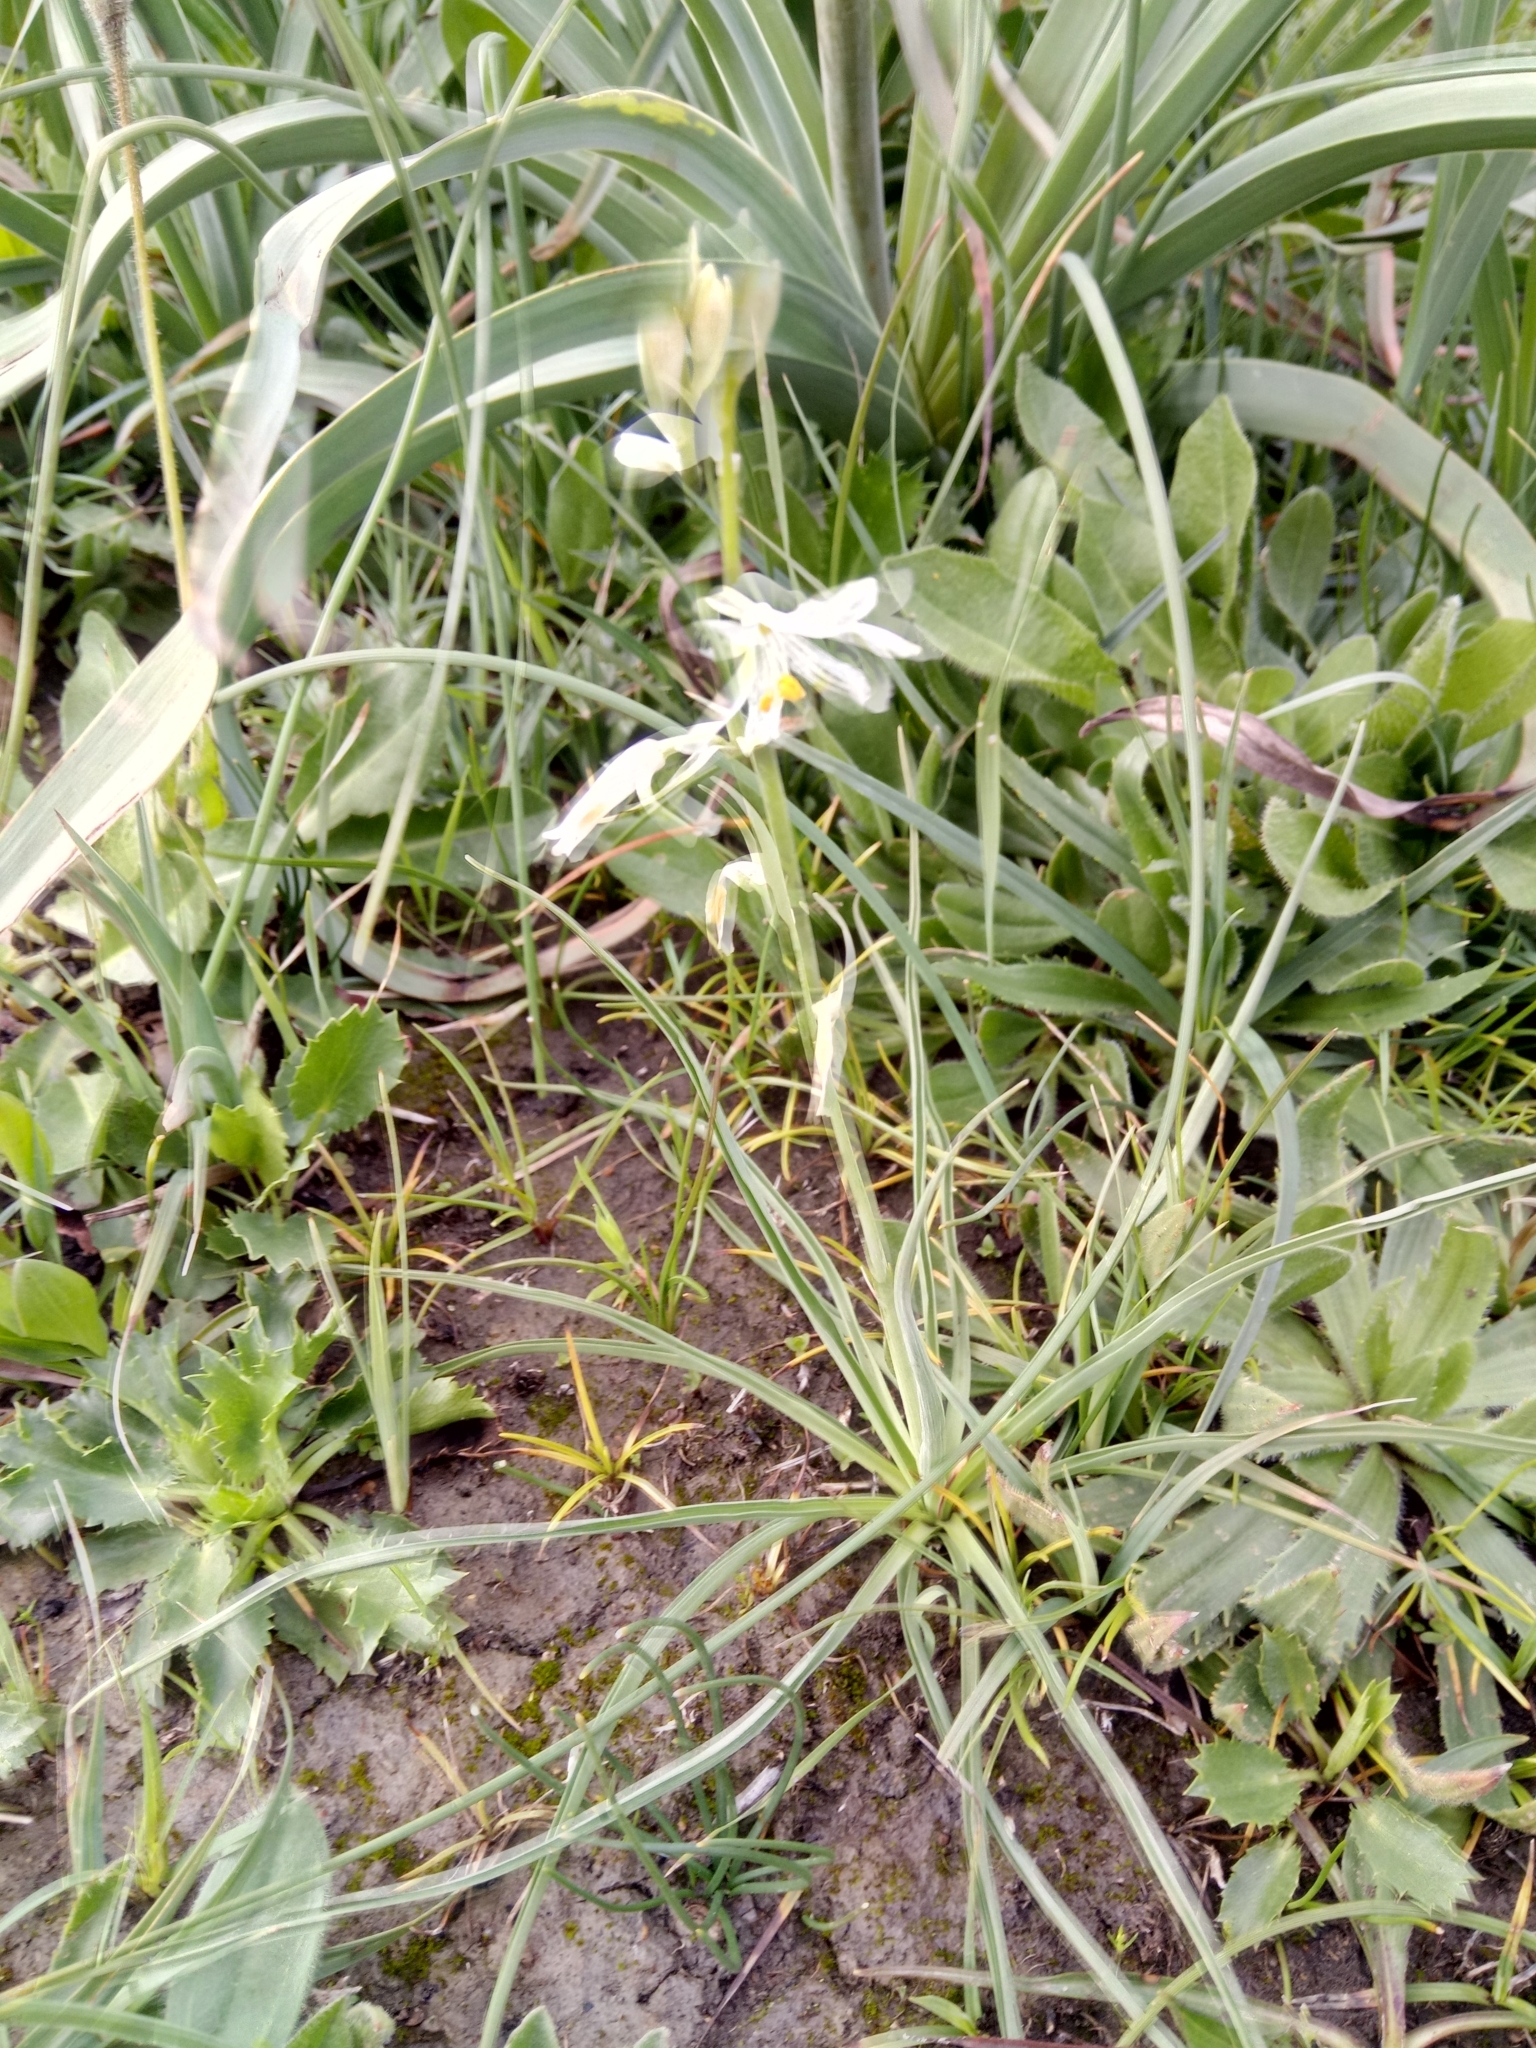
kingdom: Plantae
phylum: Tracheophyta
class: Liliopsida
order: Asparagales
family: Asparagaceae
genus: Anthericum
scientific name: Anthericum baeticum
